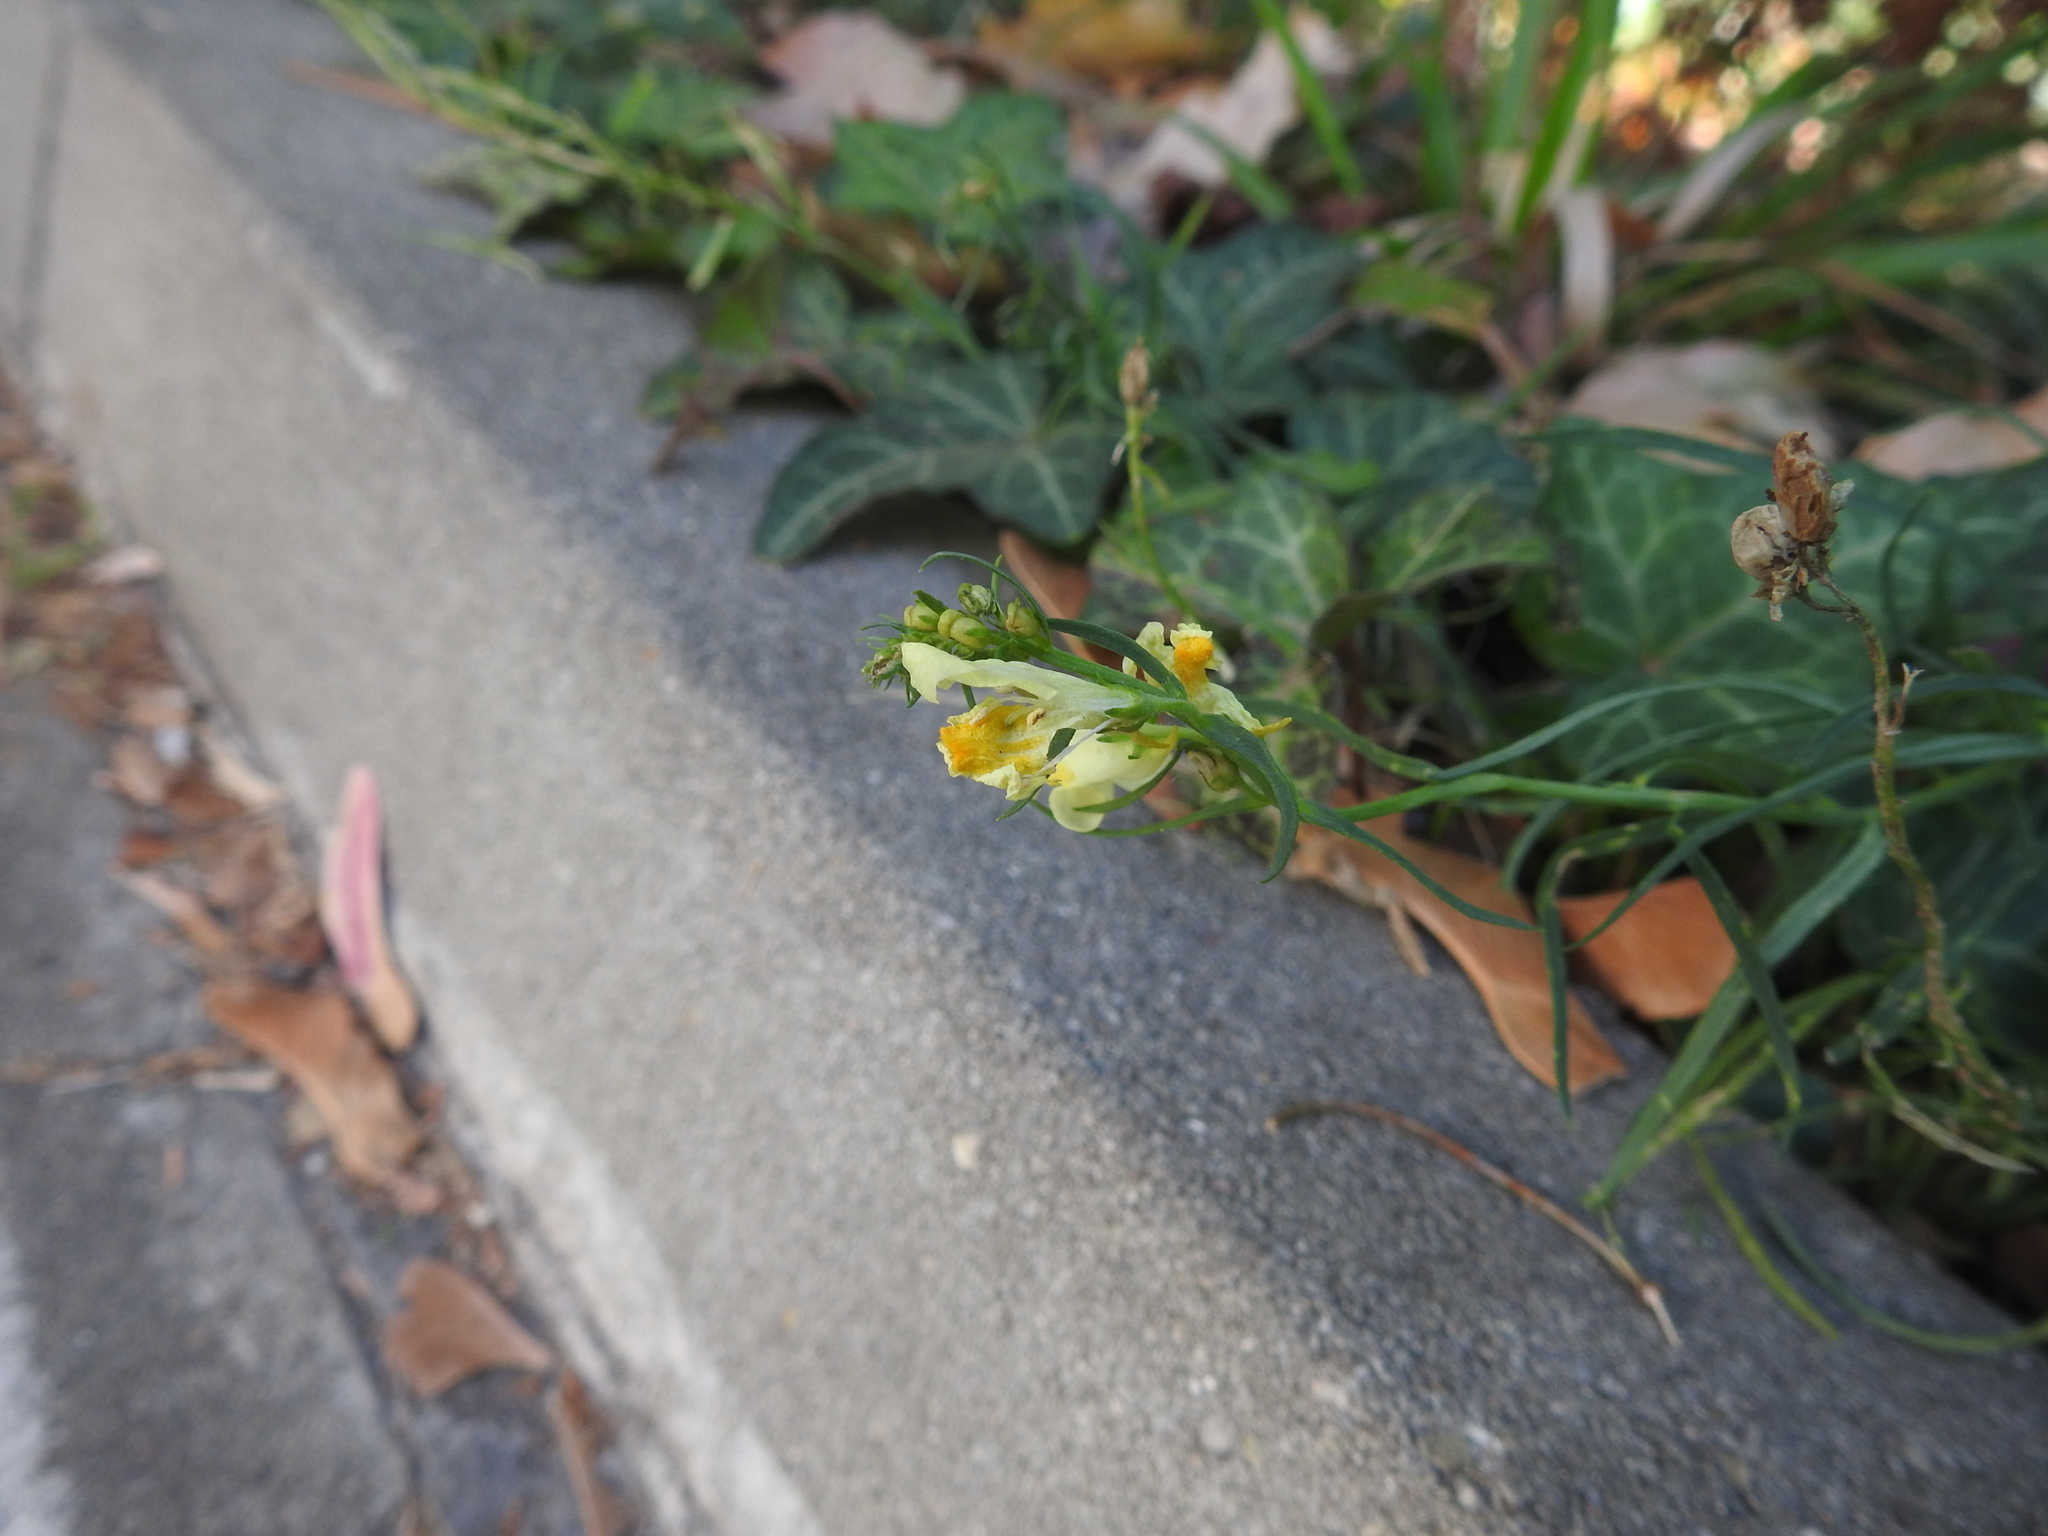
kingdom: Plantae
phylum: Tracheophyta
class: Magnoliopsida
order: Lamiales
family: Plantaginaceae
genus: Linaria
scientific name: Linaria vulgaris
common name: Butter and eggs
